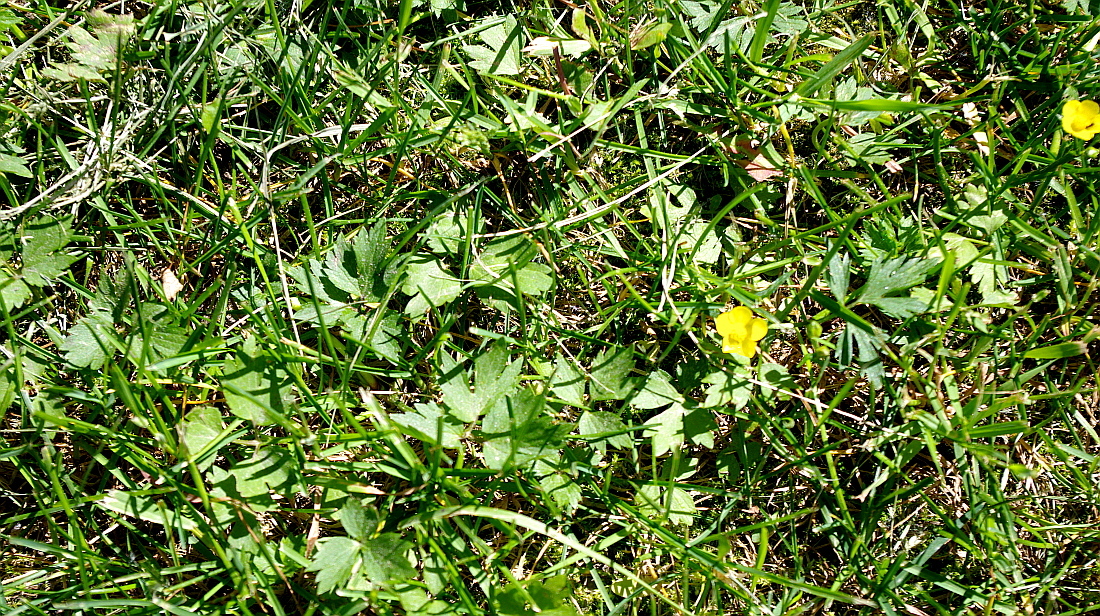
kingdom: Plantae
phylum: Tracheophyta
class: Magnoliopsida
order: Ranunculales
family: Ranunculaceae
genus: Ranunculus
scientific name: Ranunculus repens
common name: Creeping buttercup
